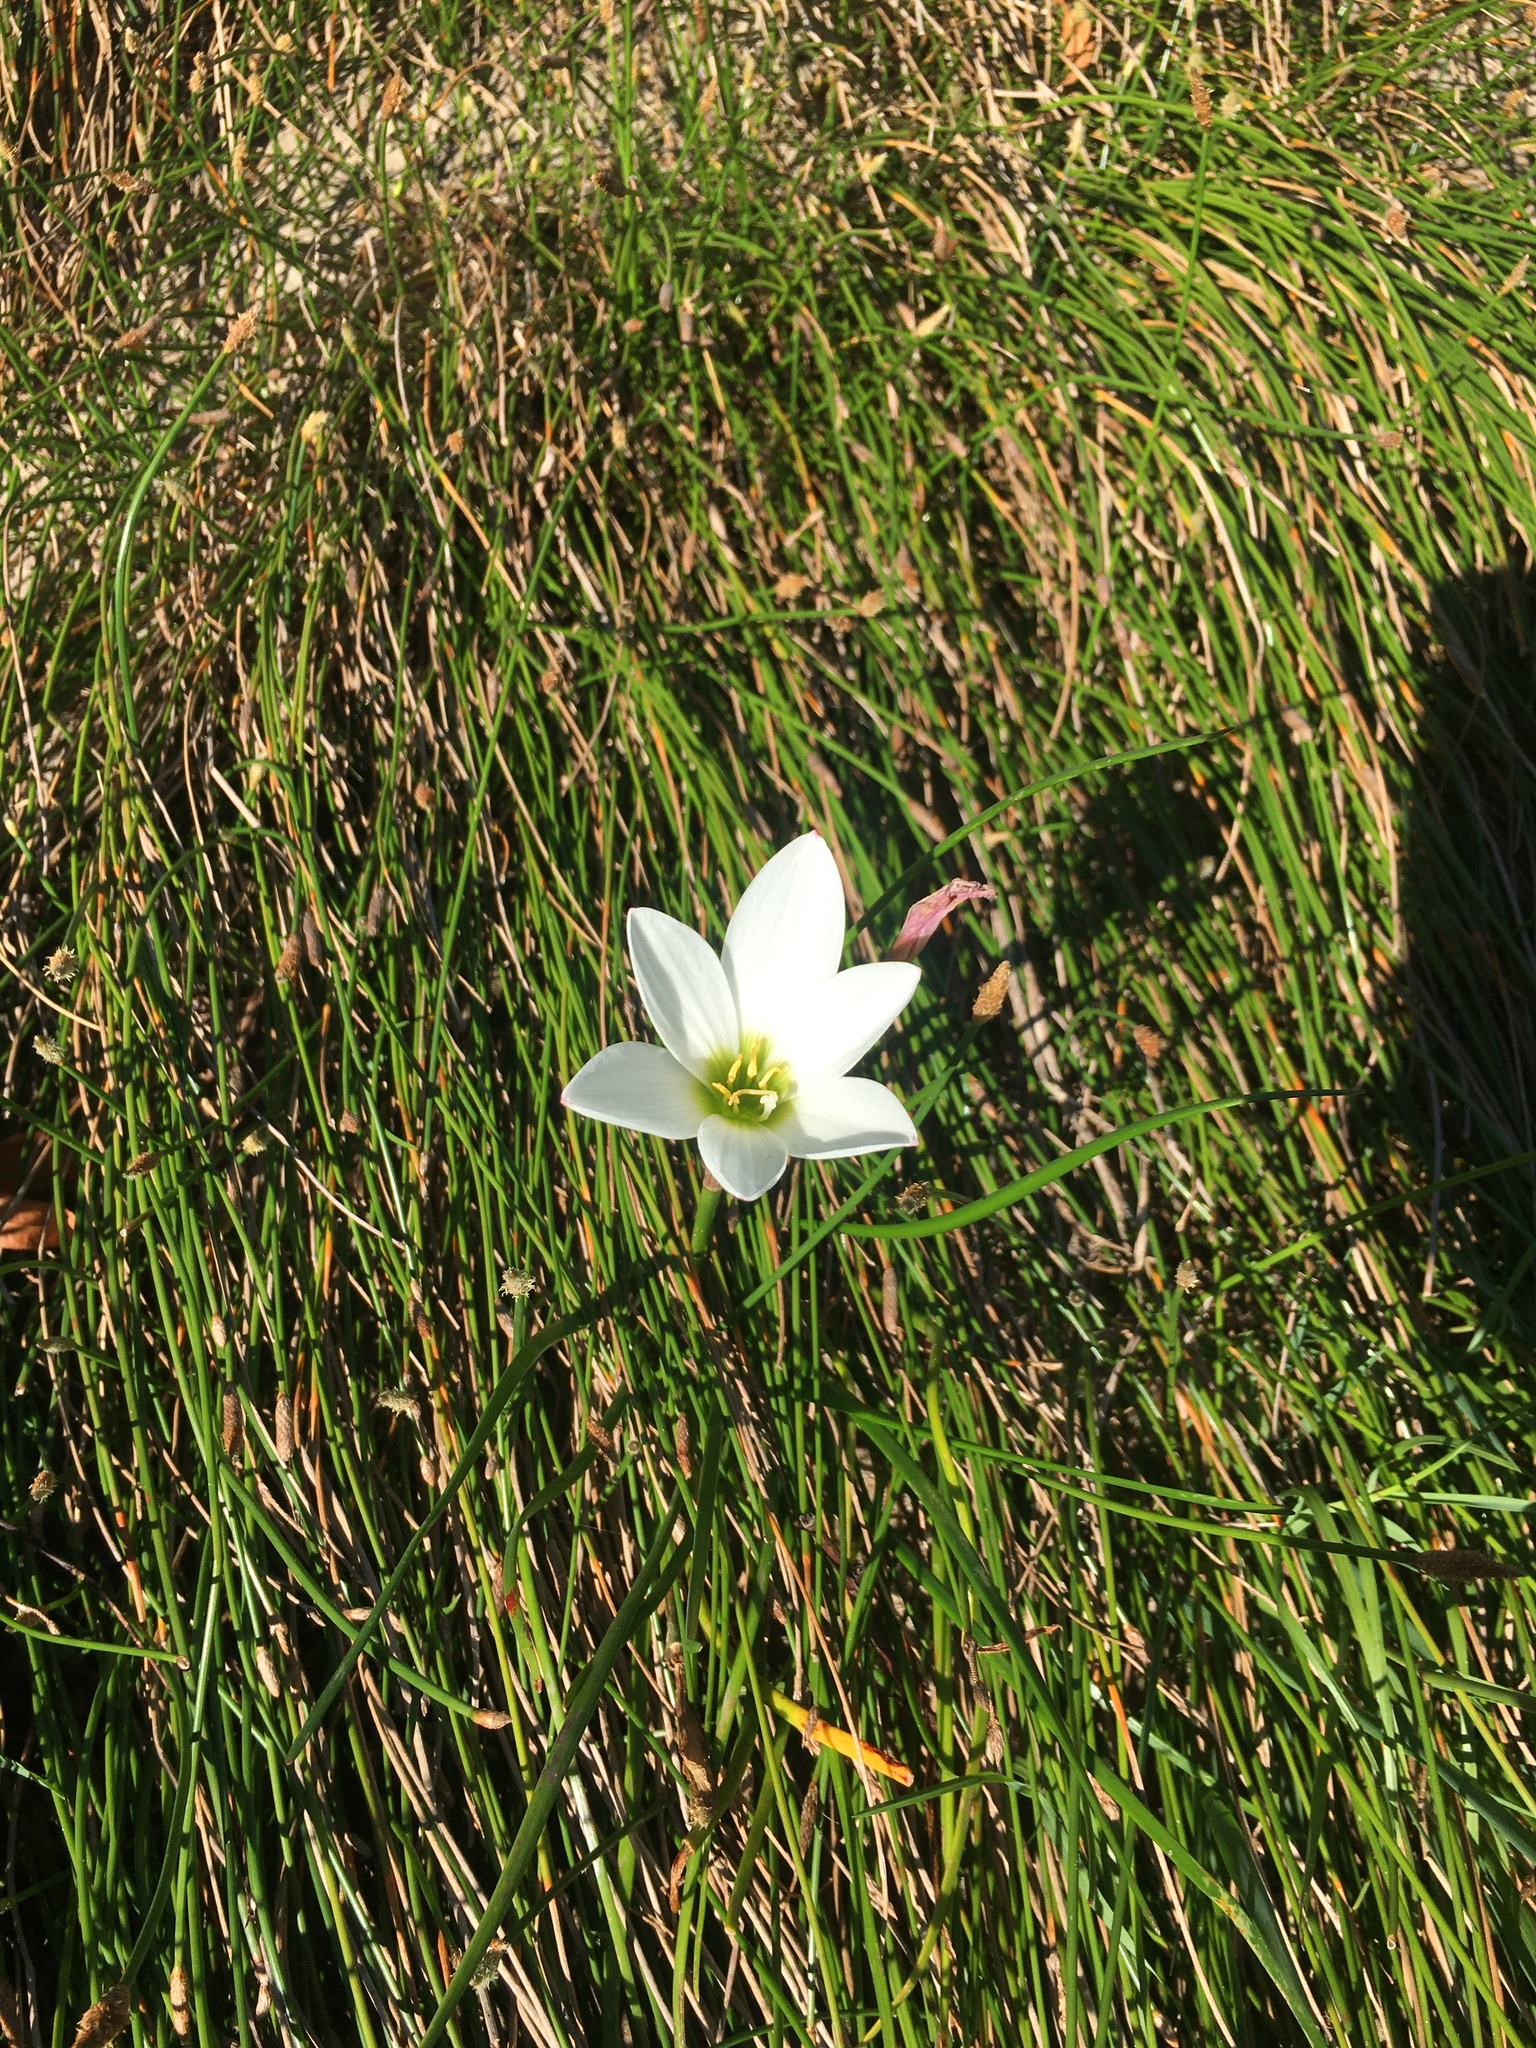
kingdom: Plantae
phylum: Tracheophyta
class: Liliopsida
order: Asparagales
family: Amaryllidaceae
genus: Zephyranthes
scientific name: Zephyranthes candida
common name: Autumn zephyrlily
